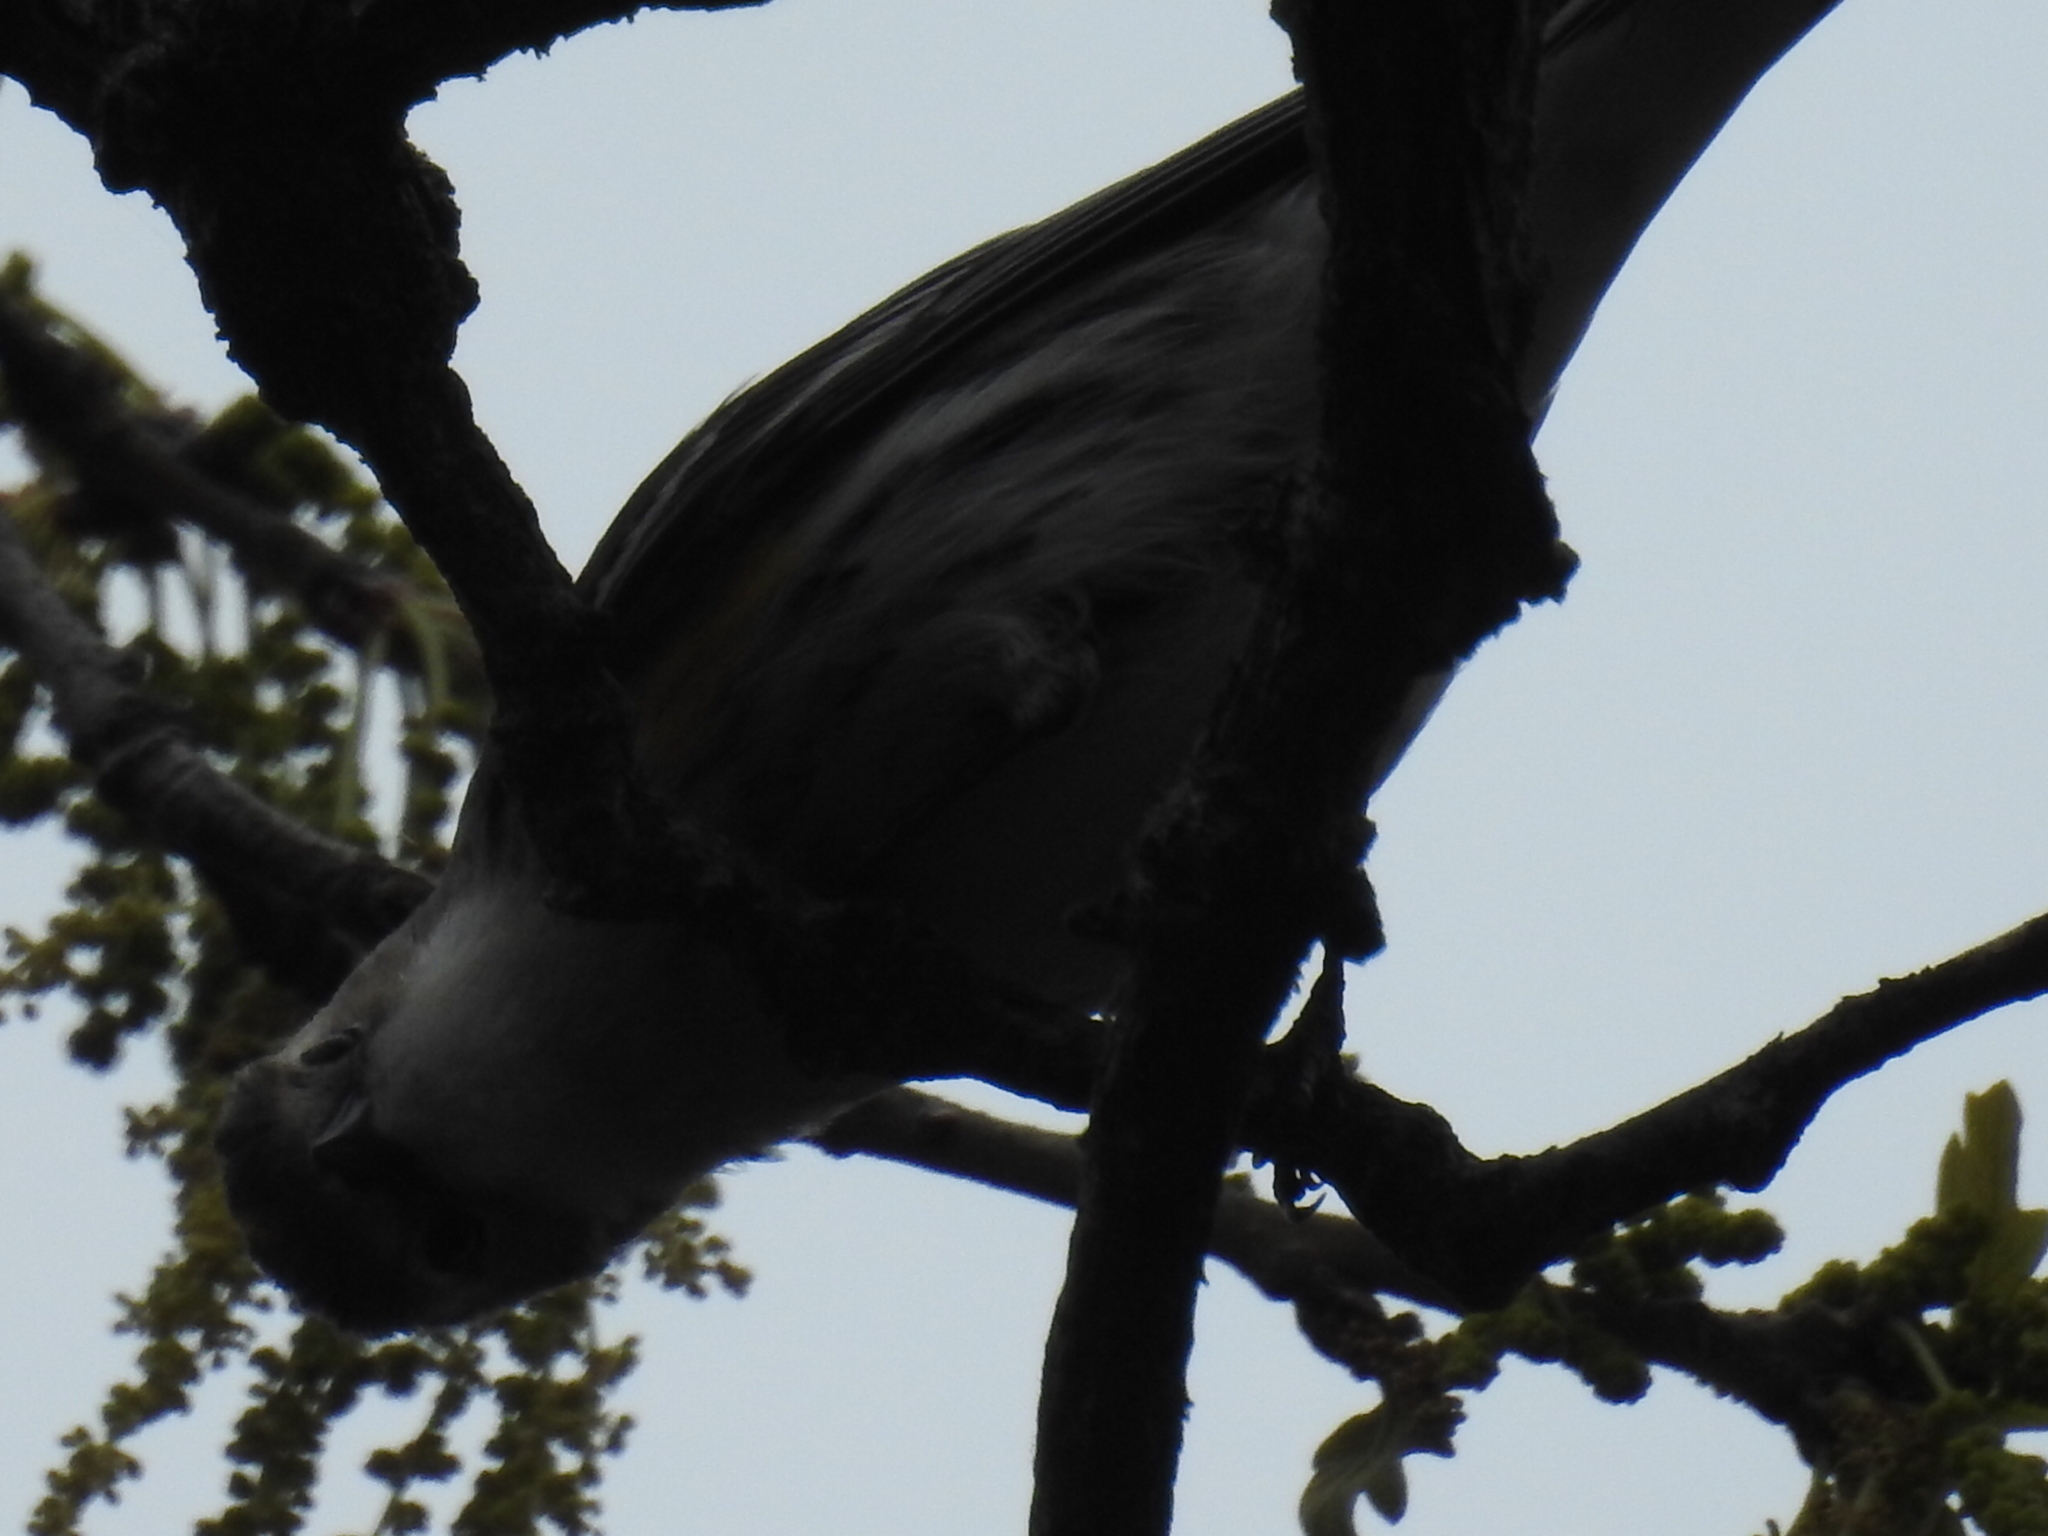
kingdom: Animalia
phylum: Chordata
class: Aves
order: Passeriformes
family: Parulidae
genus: Setophaga
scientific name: Setophaga coronata
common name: Myrtle warbler
